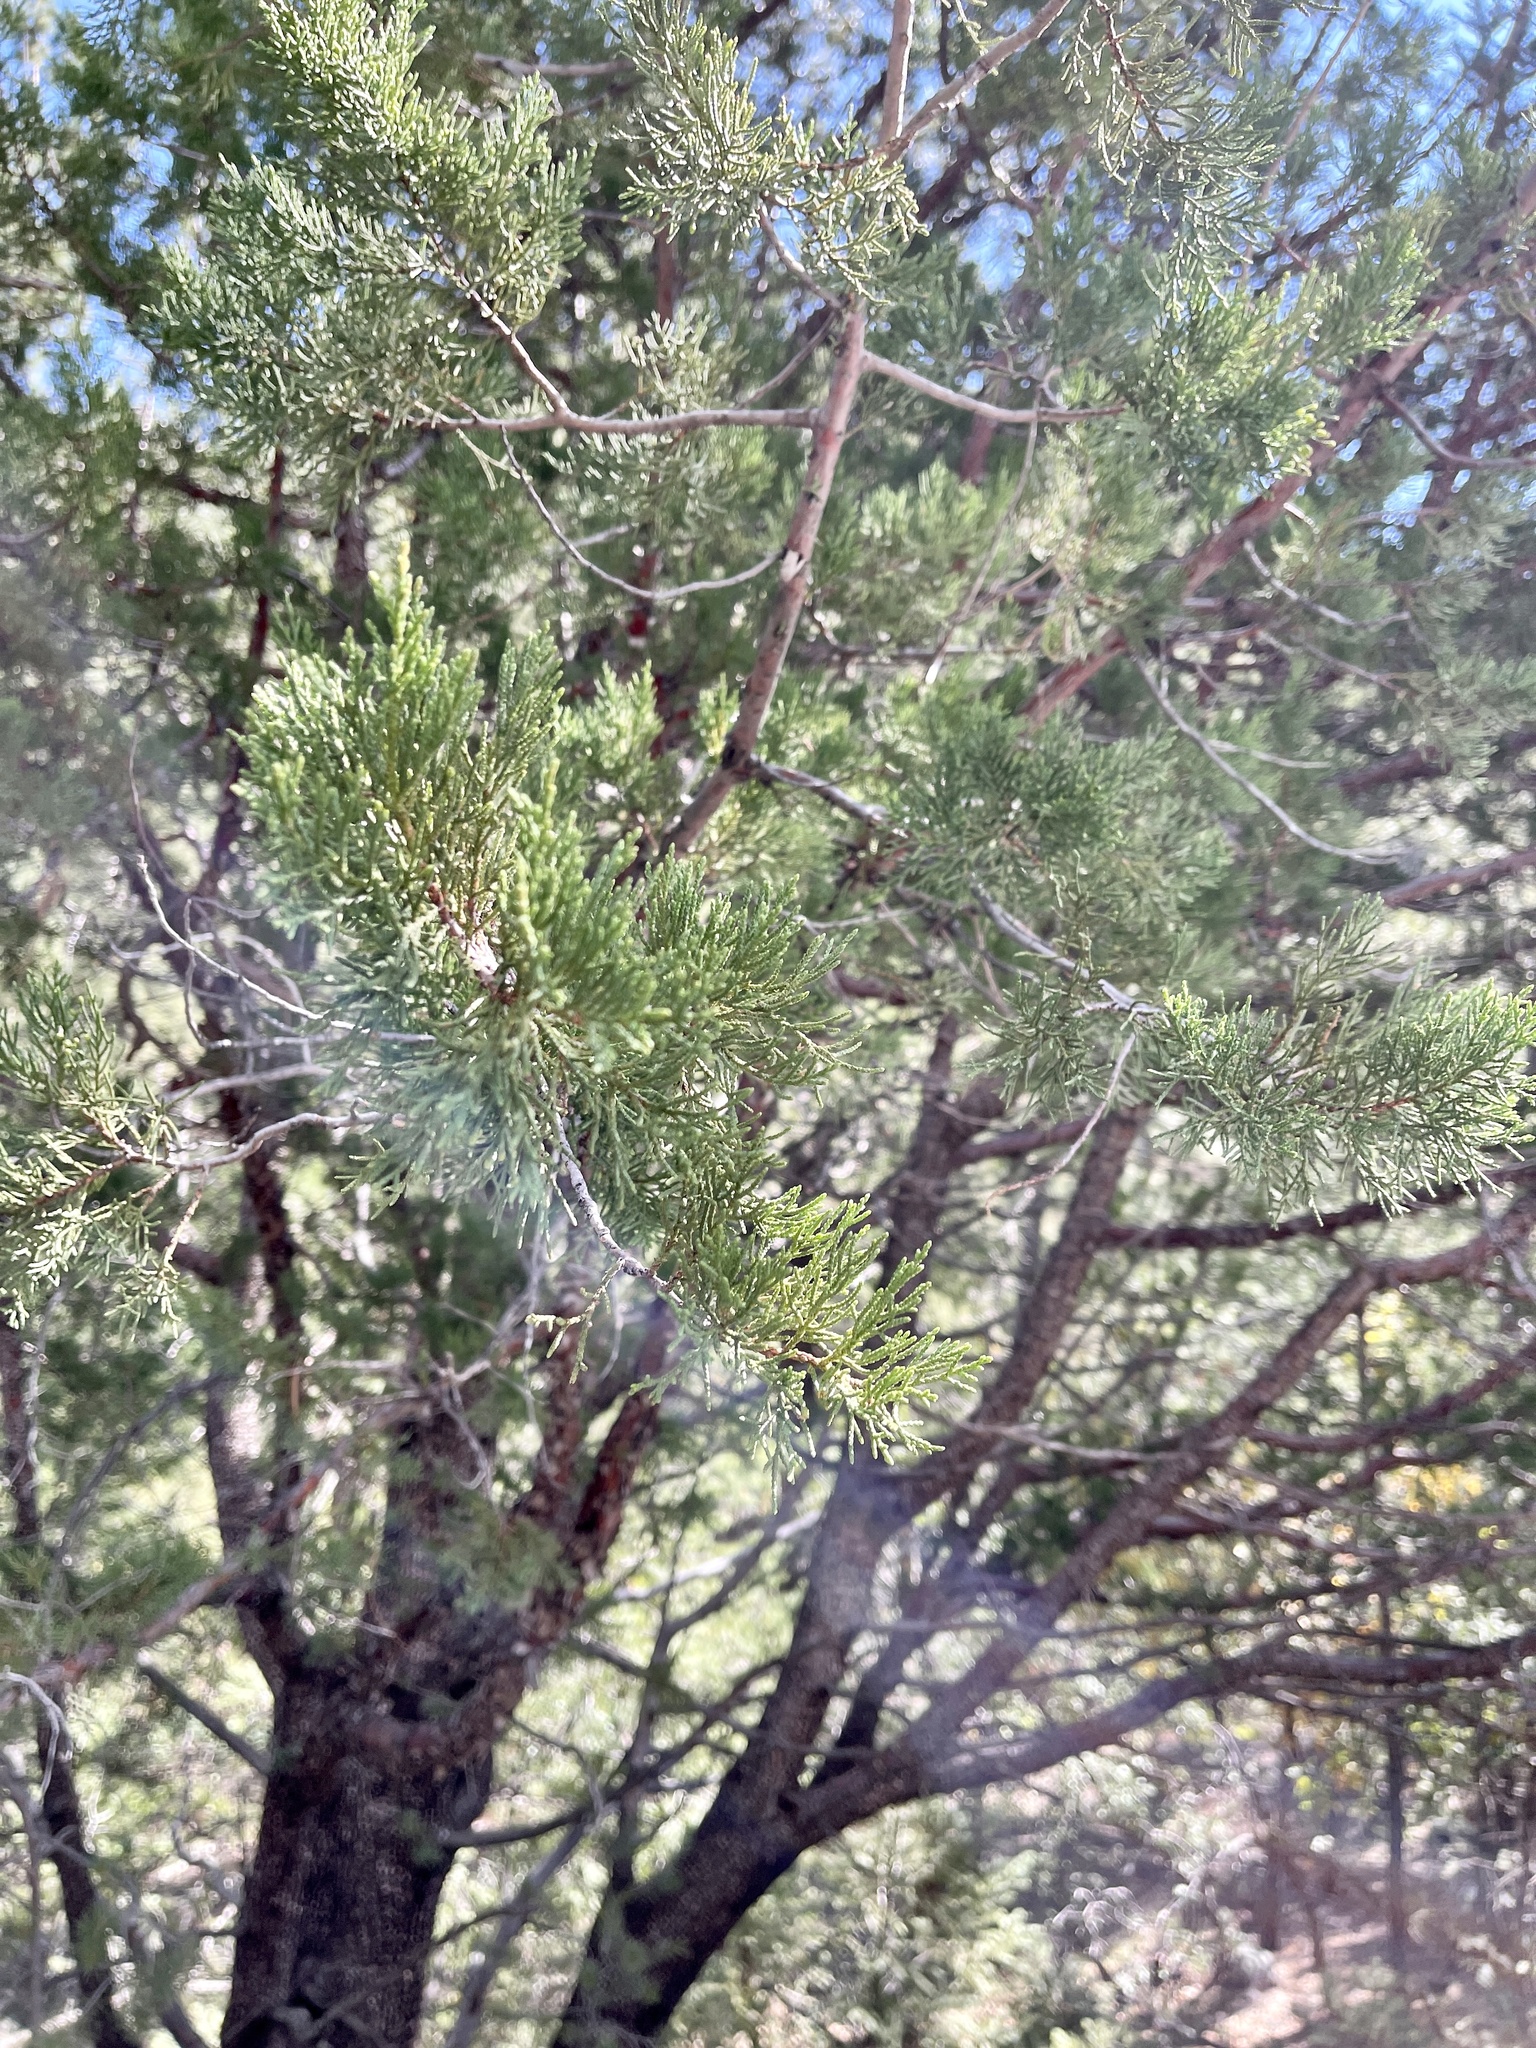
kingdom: Plantae
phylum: Tracheophyta
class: Pinopsida
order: Pinales
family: Cupressaceae
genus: Juniperus
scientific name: Juniperus deppeana
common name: Alligator juniper
